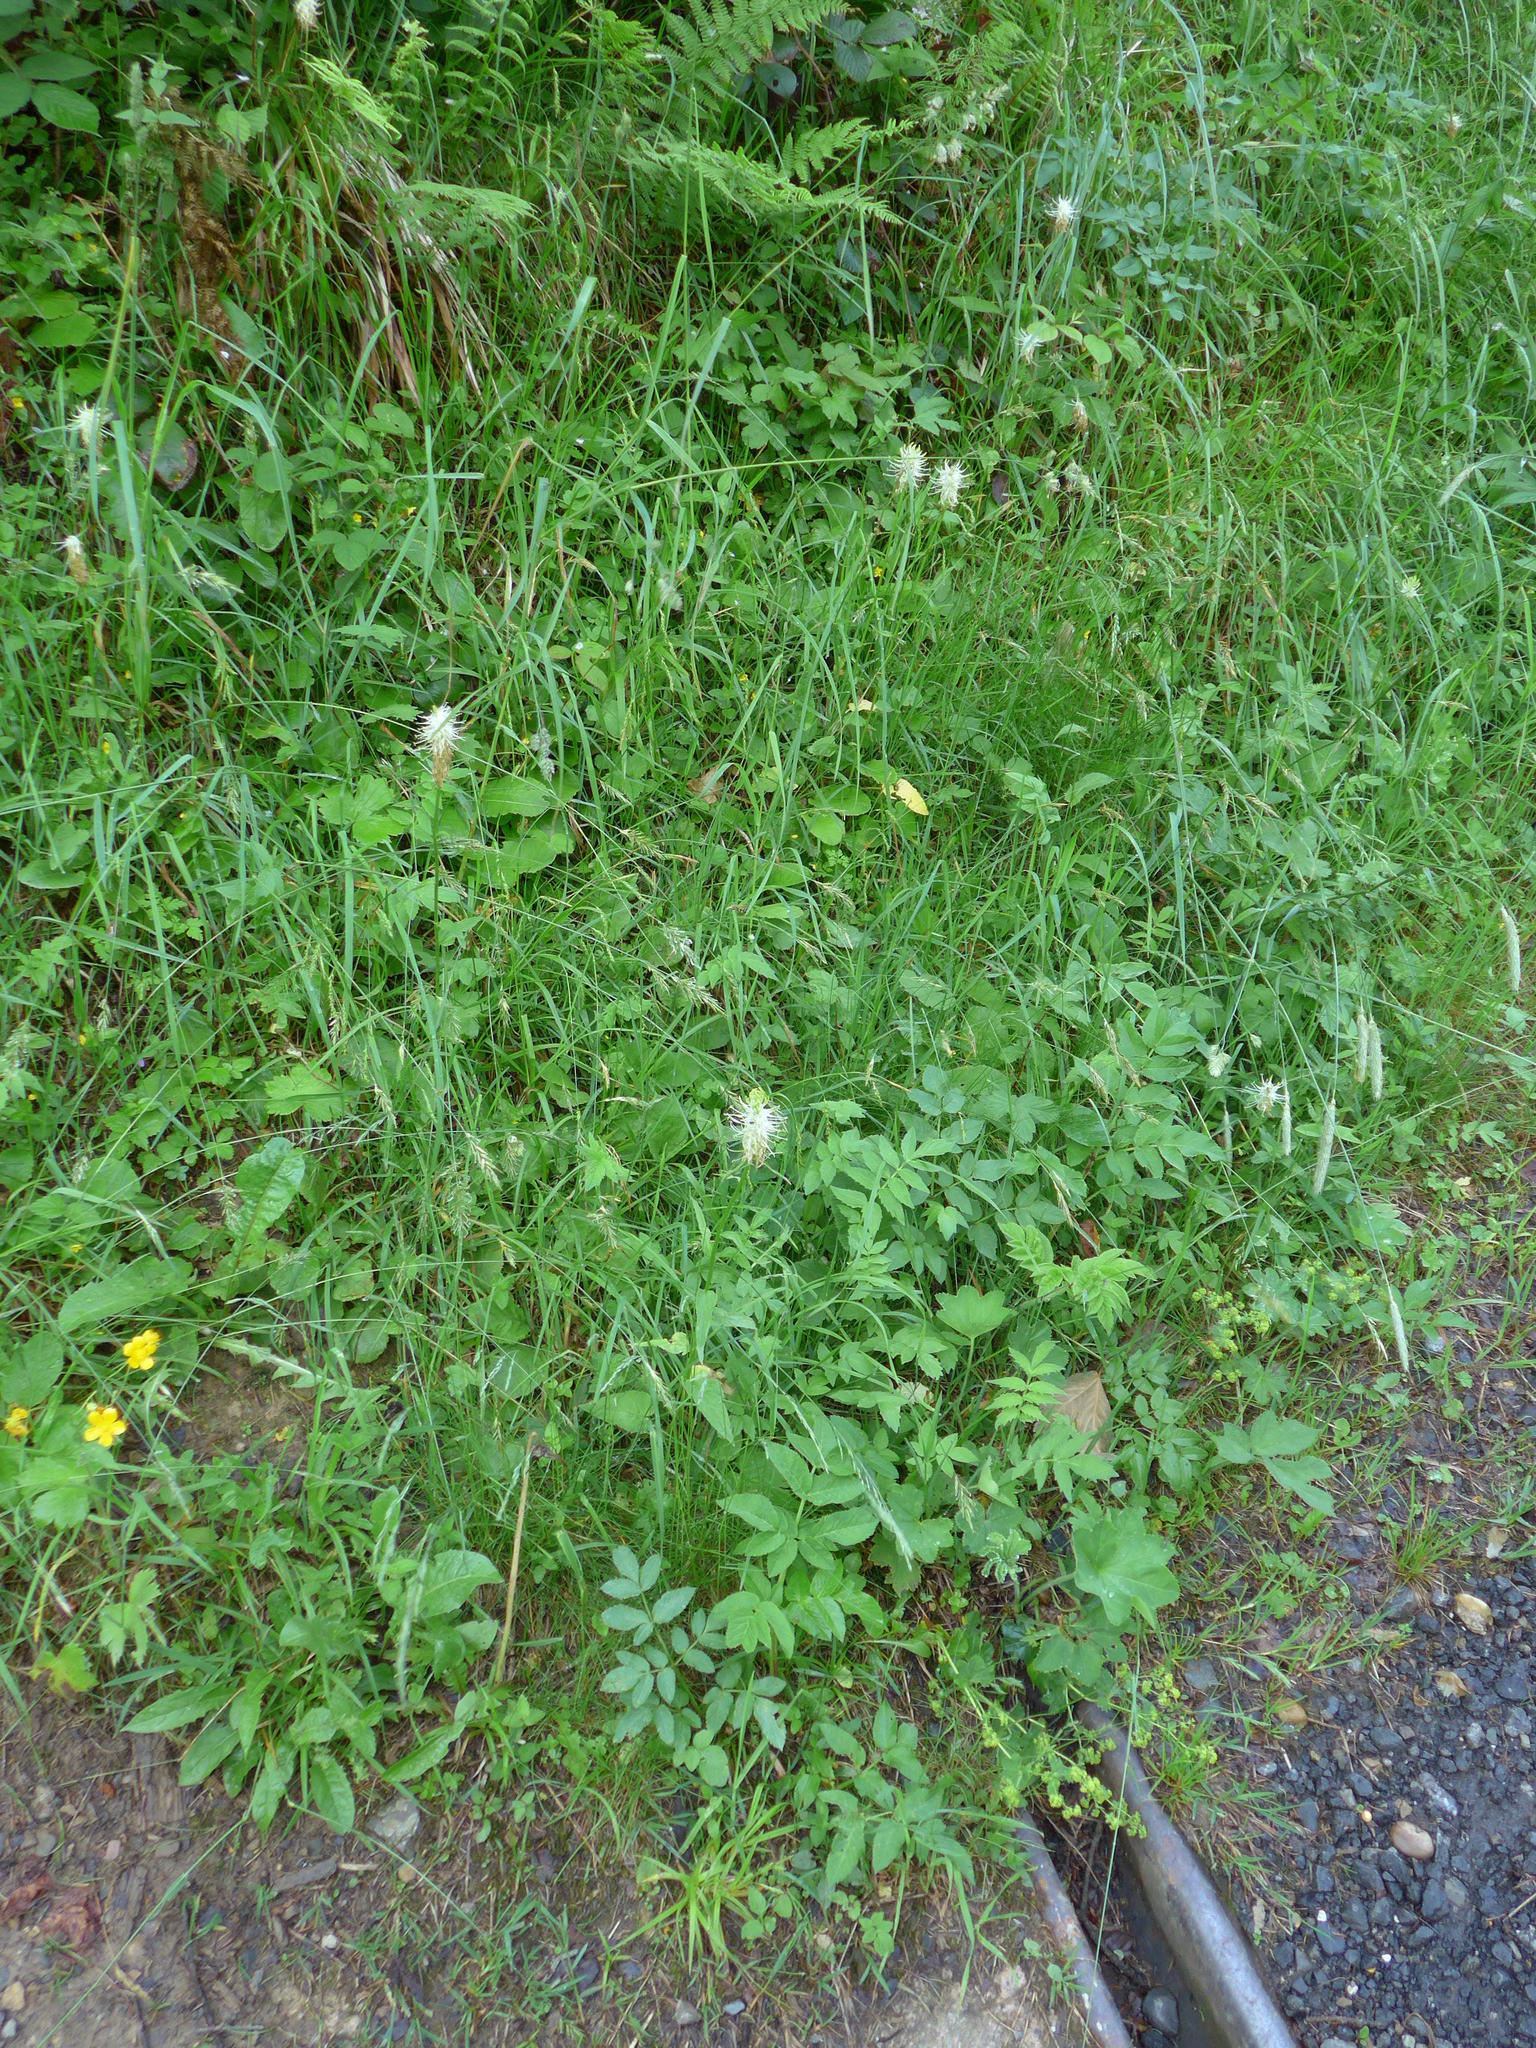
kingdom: Plantae
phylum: Tracheophyta
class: Magnoliopsida
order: Asterales
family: Campanulaceae
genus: Phyteuma
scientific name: Phyteuma spicatum
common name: Spiked rampion
